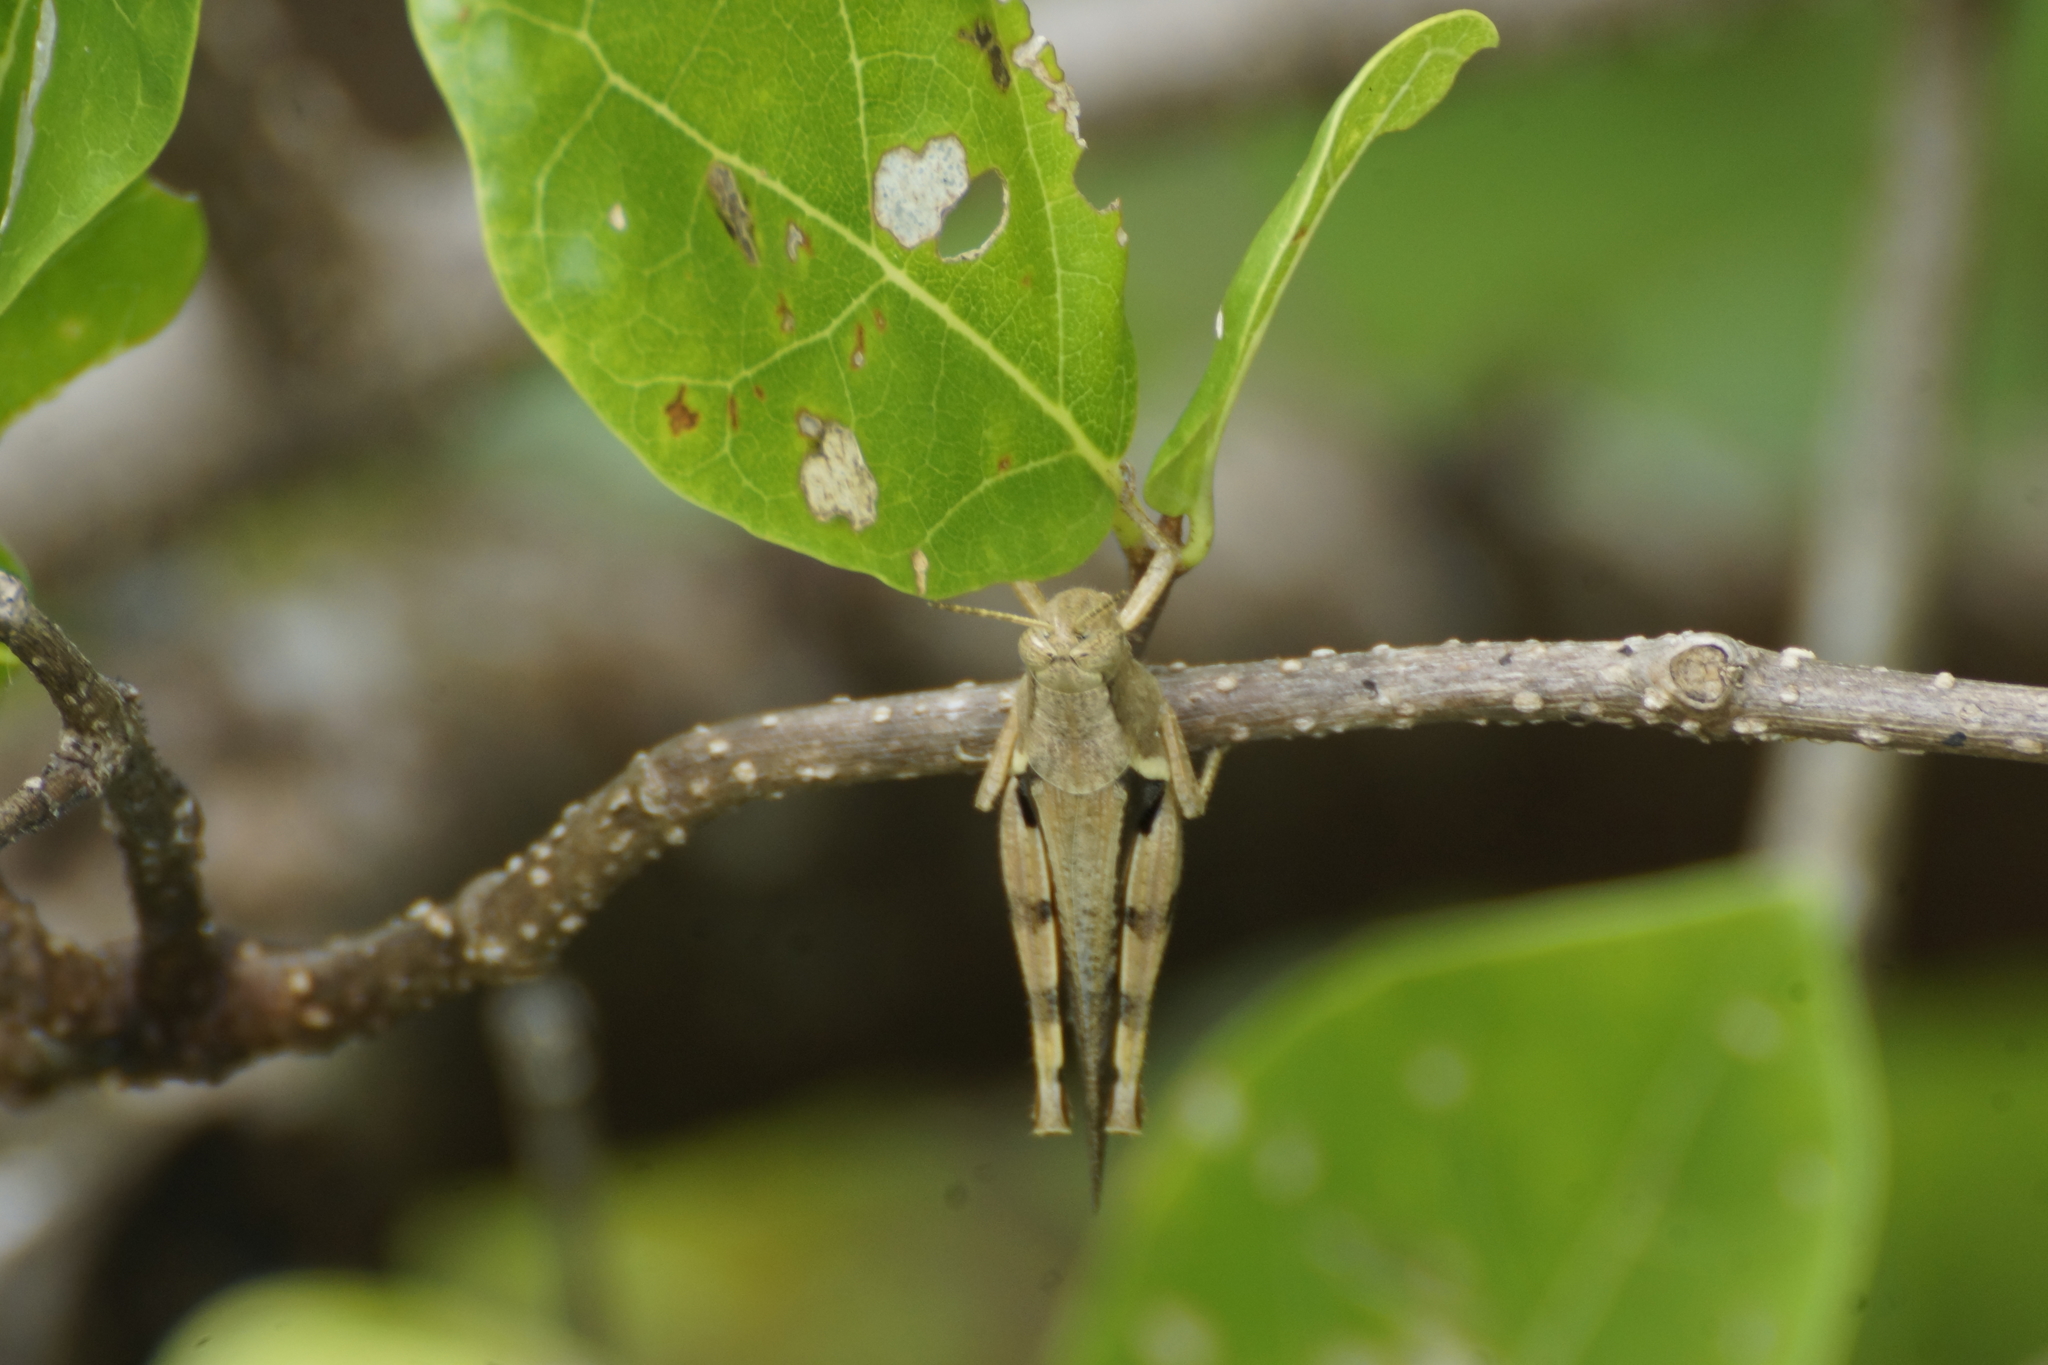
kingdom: Animalia
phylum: Arthropoda
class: Insecta
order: Orthoptera
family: Acrididae
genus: Stenocatantops
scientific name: Stenocatantops angustifrons
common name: Common tropical sharptail
